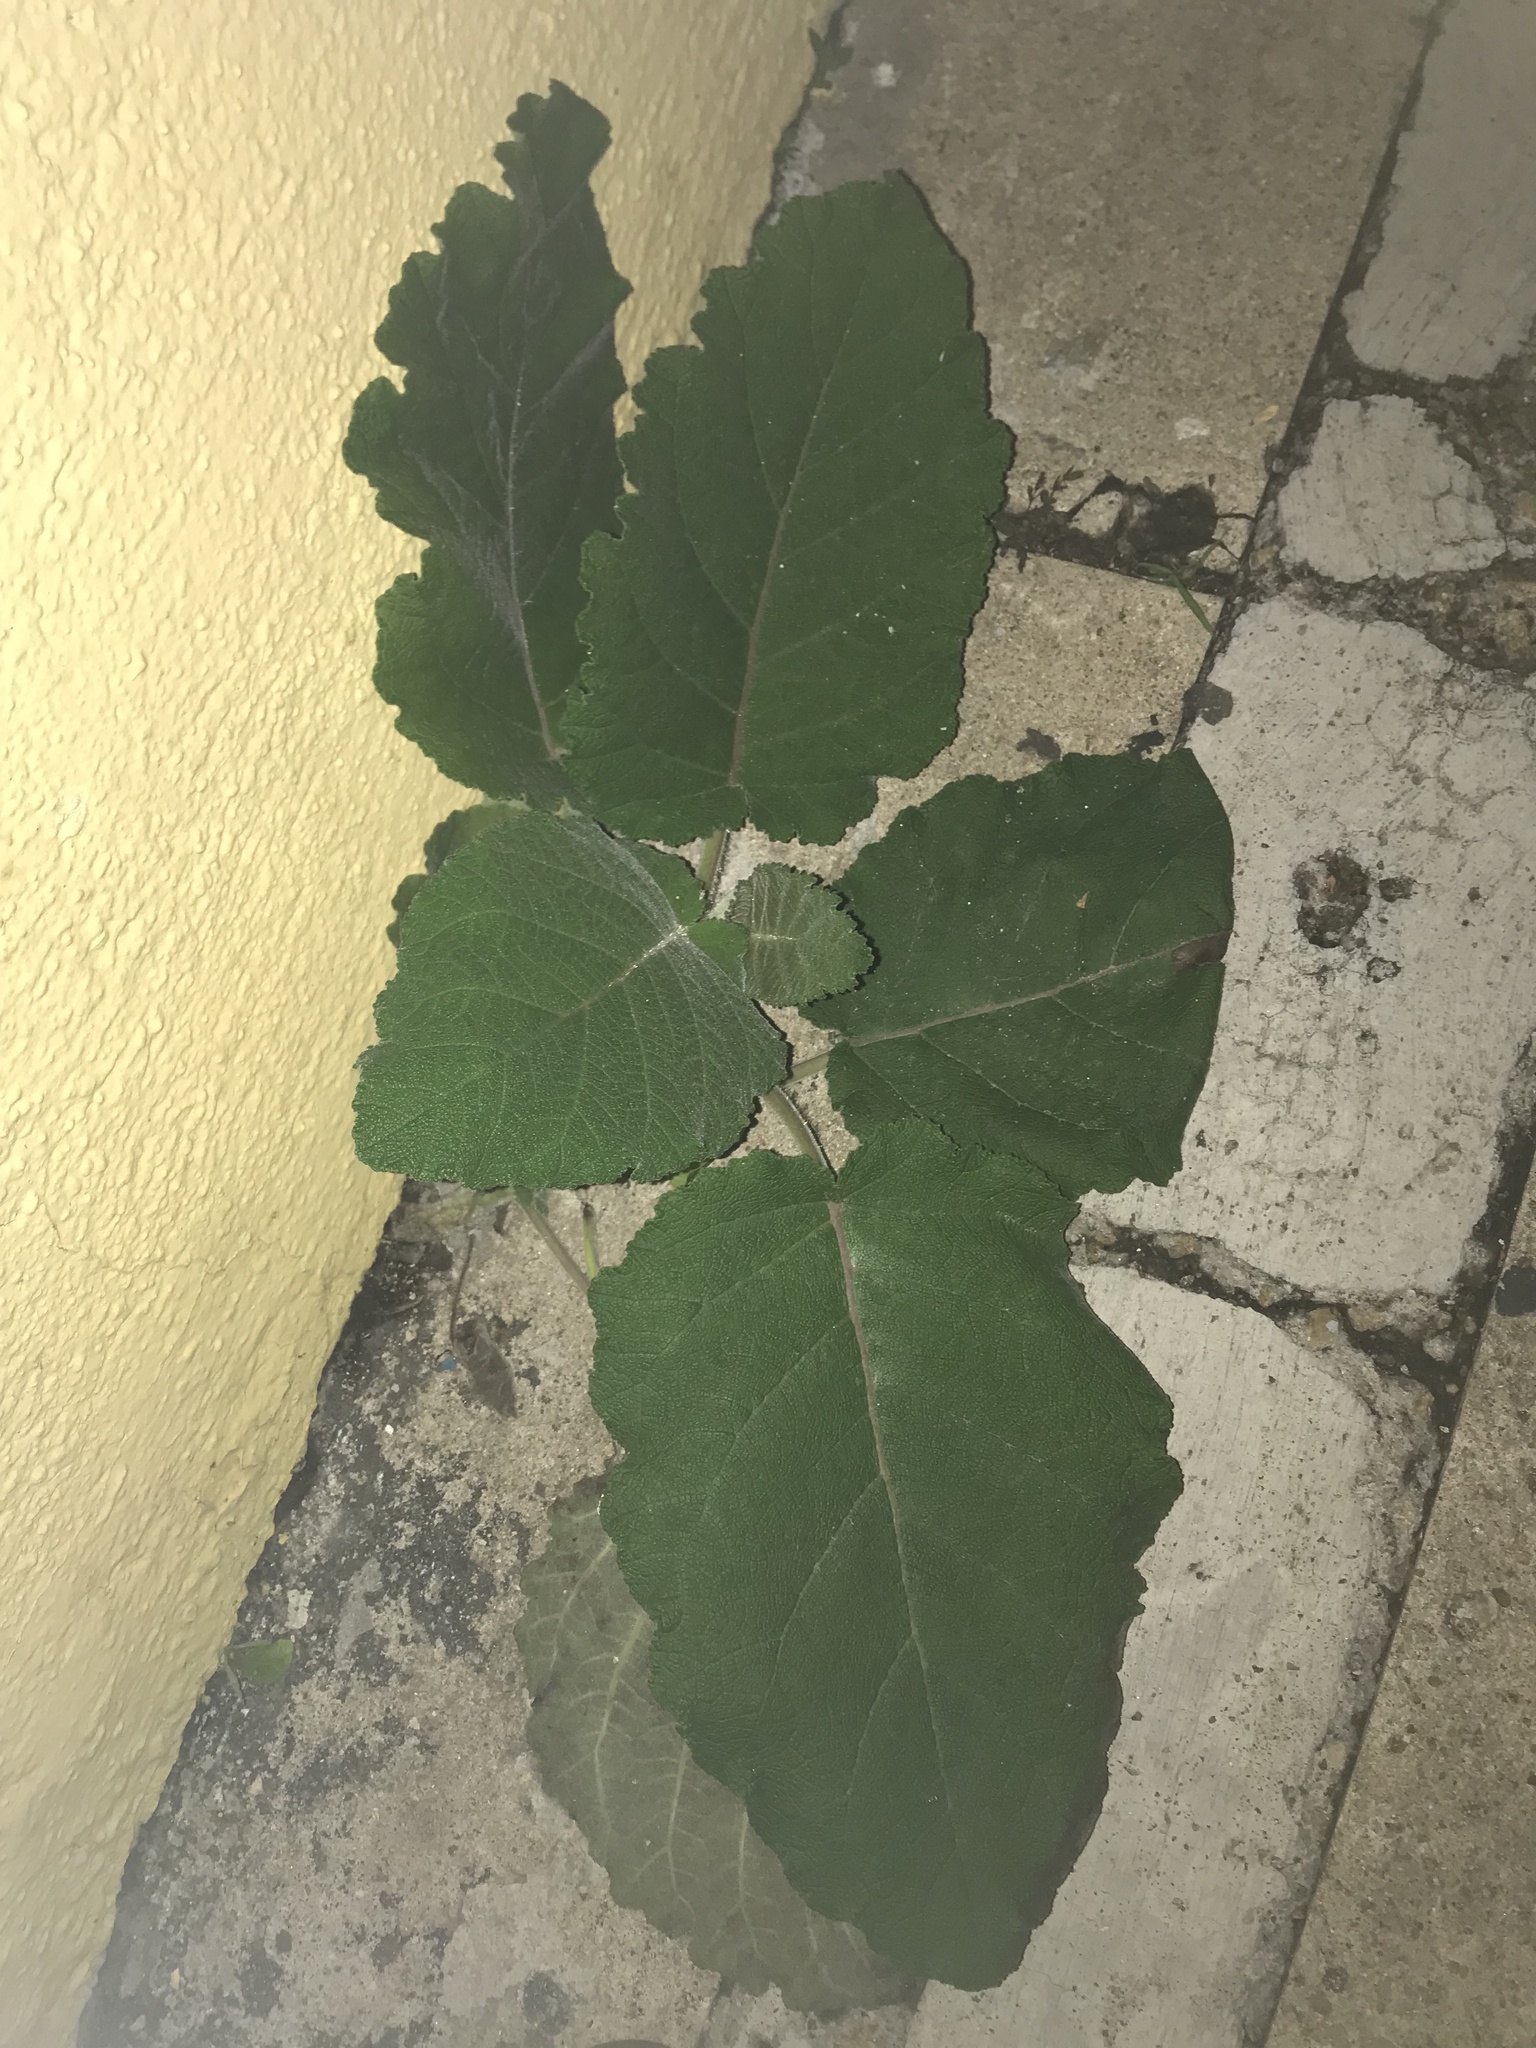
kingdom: Plantae
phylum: Tracheophyta
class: Magnoliopsida
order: Boraginales
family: Namaceae
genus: Wigandia
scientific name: Wigandia urens
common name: Caracus wigandia
